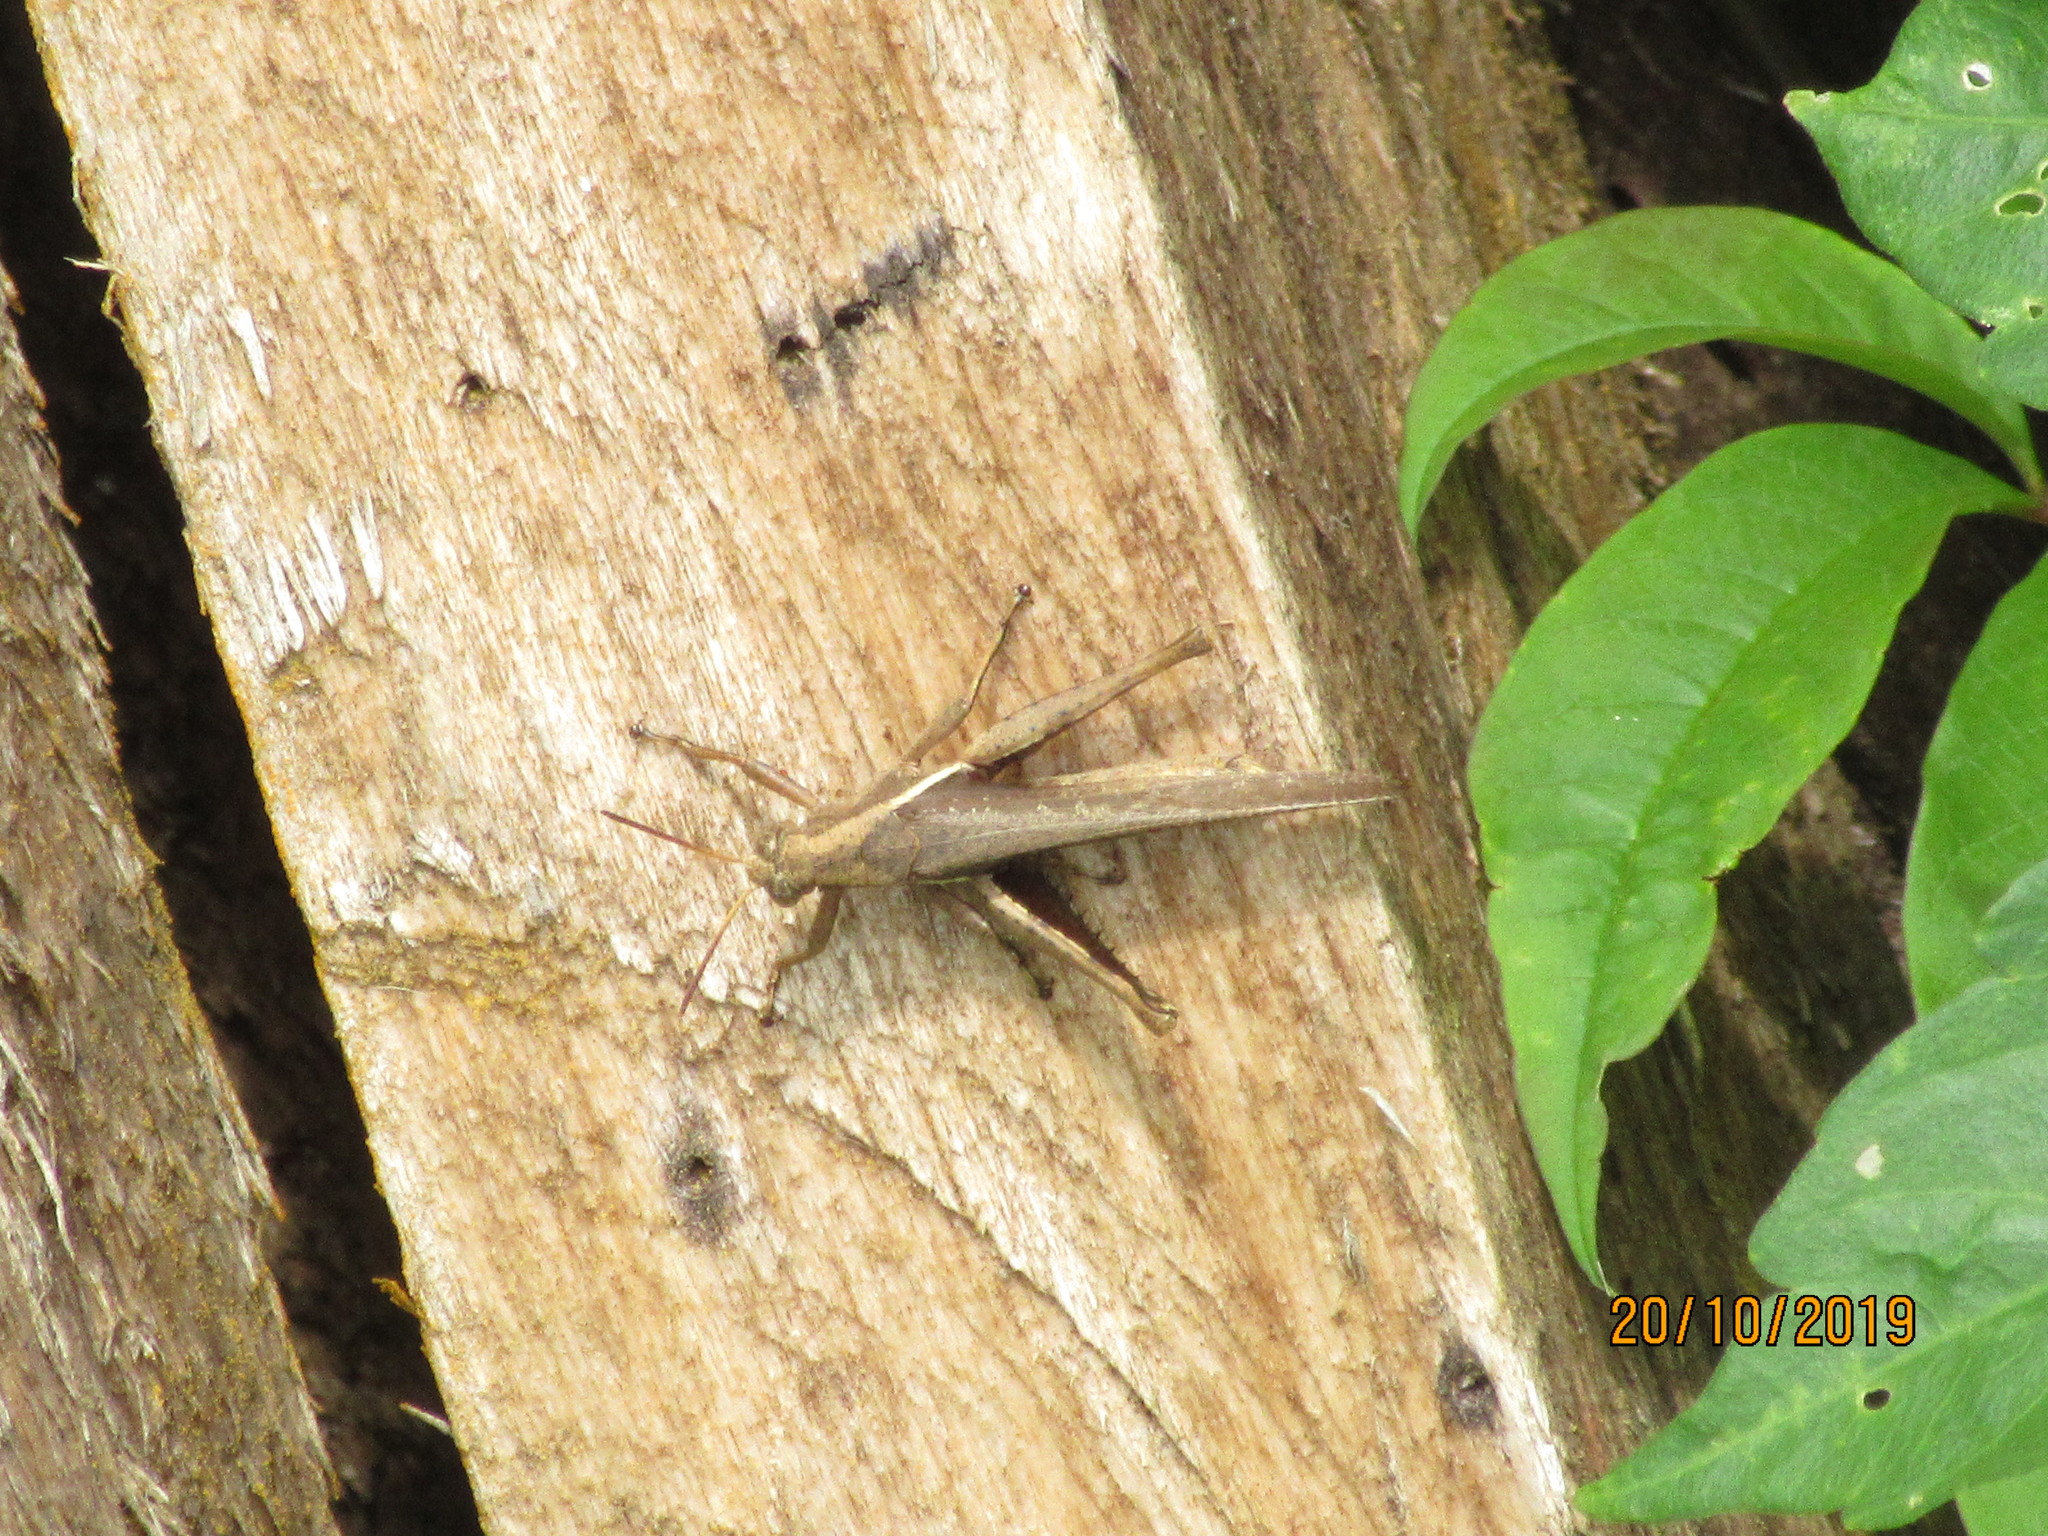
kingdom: Animalia
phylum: Arthropoda
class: Insecta
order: Orthoptera
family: Acrididae
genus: Abracris
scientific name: Abracris flavolineata
